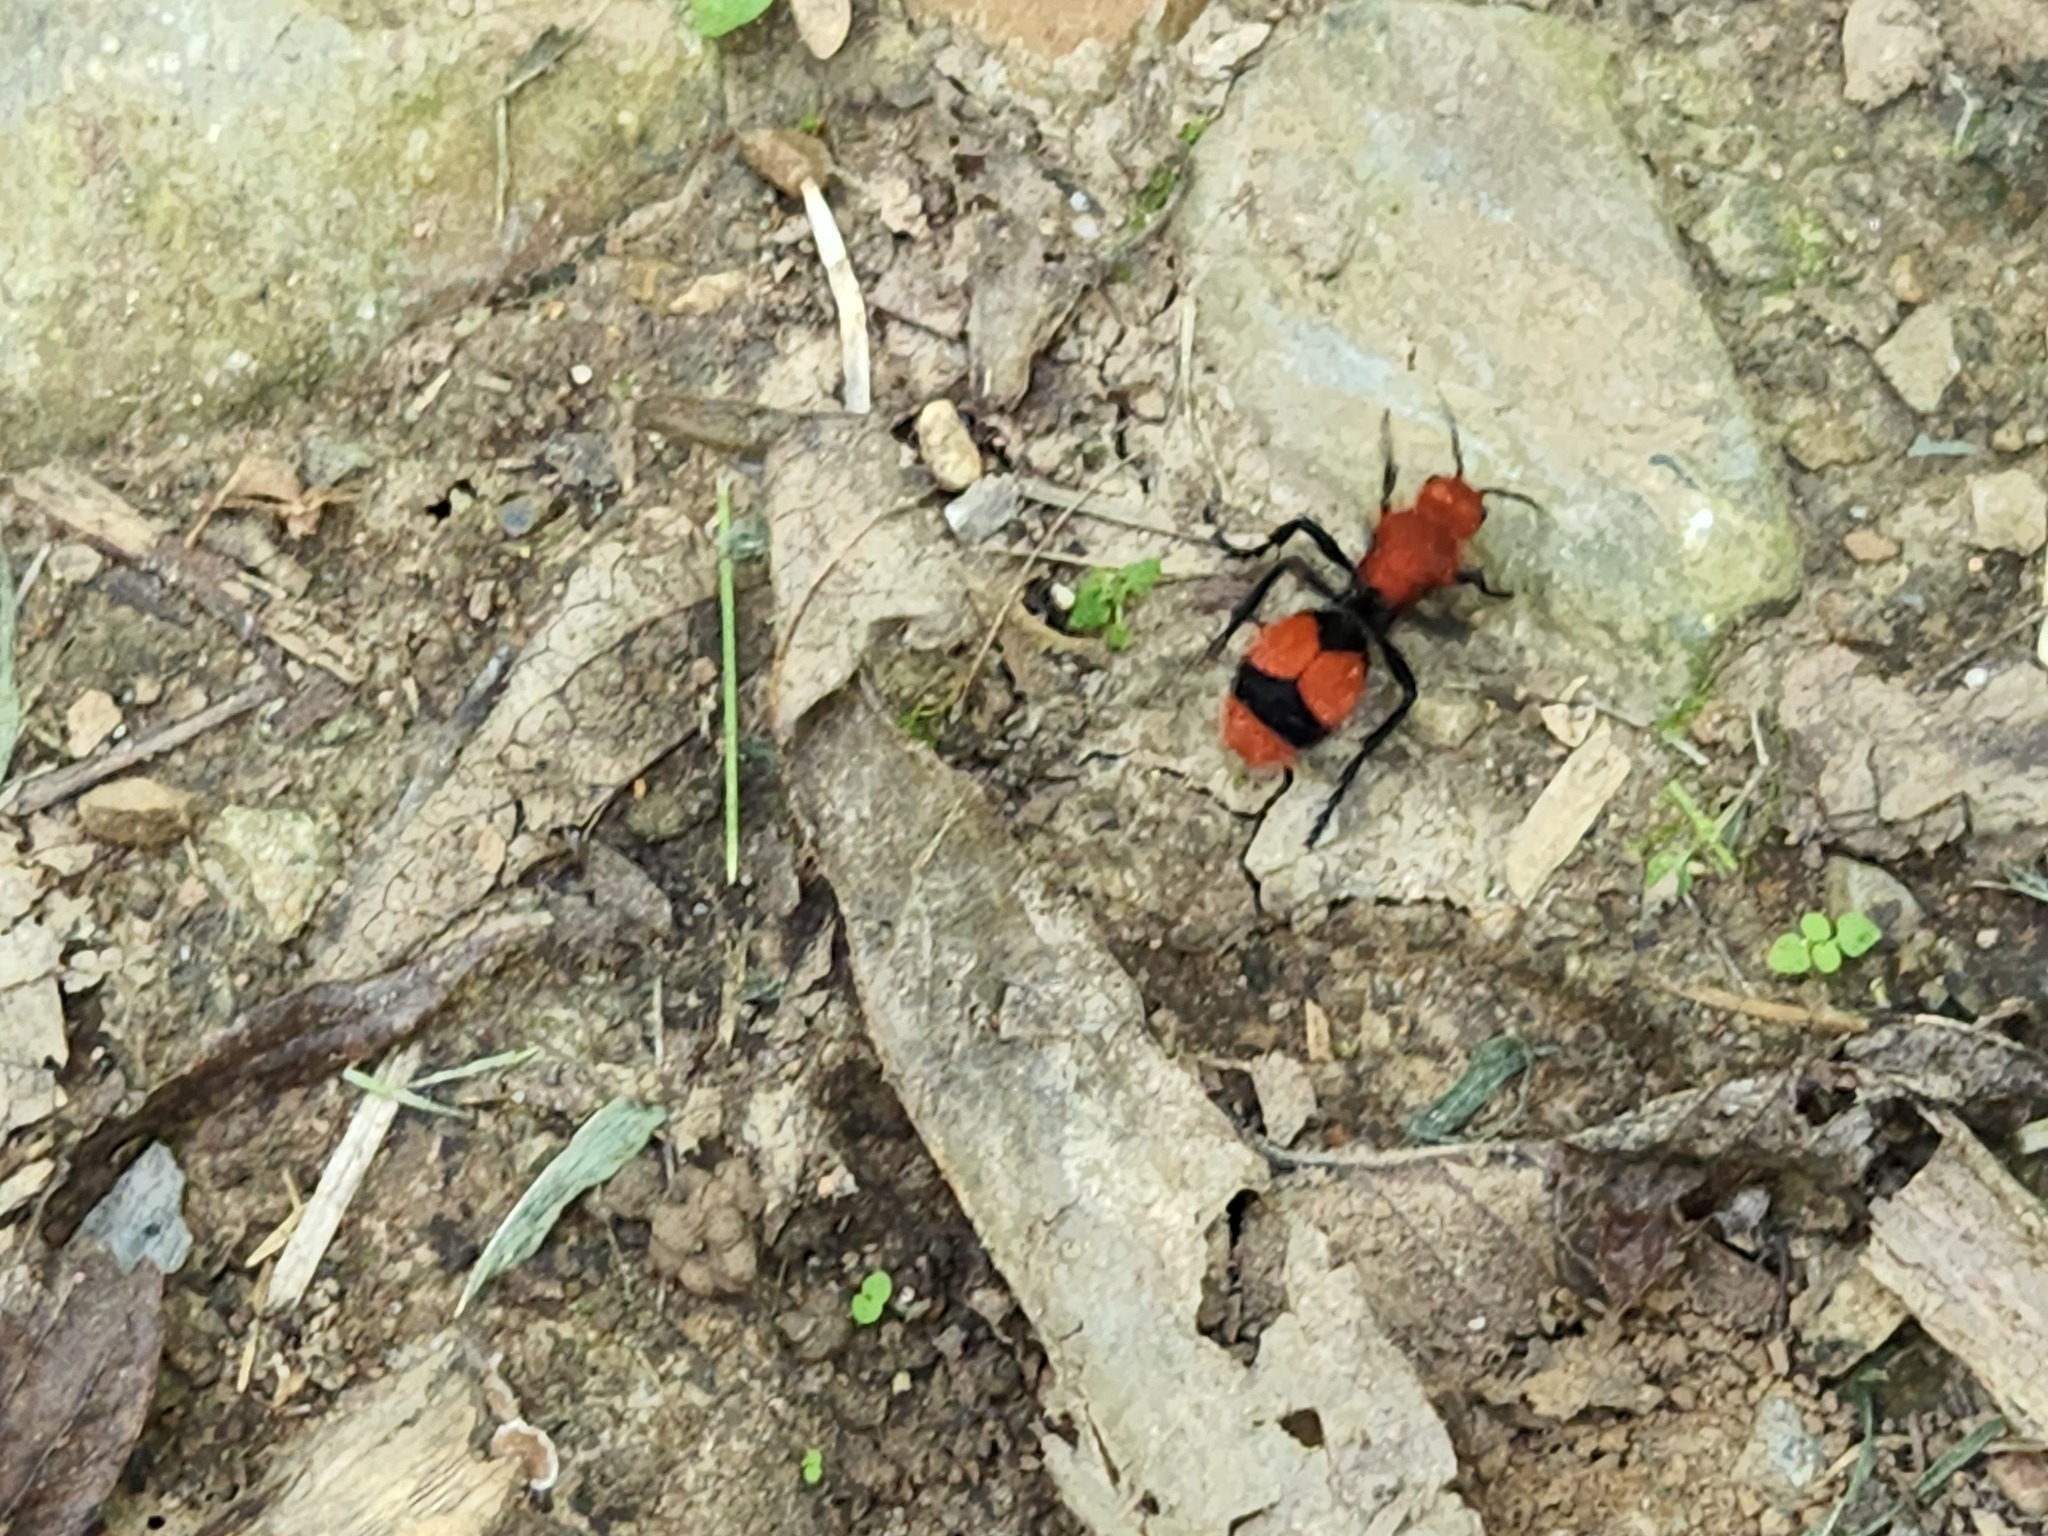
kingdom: Animalia
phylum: Arthropoda
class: Insecta
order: Hymenoptera
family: Mutillidae
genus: Dasymutilla
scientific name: Dasymutilla occidentalis
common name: Common eastern velvet ant
